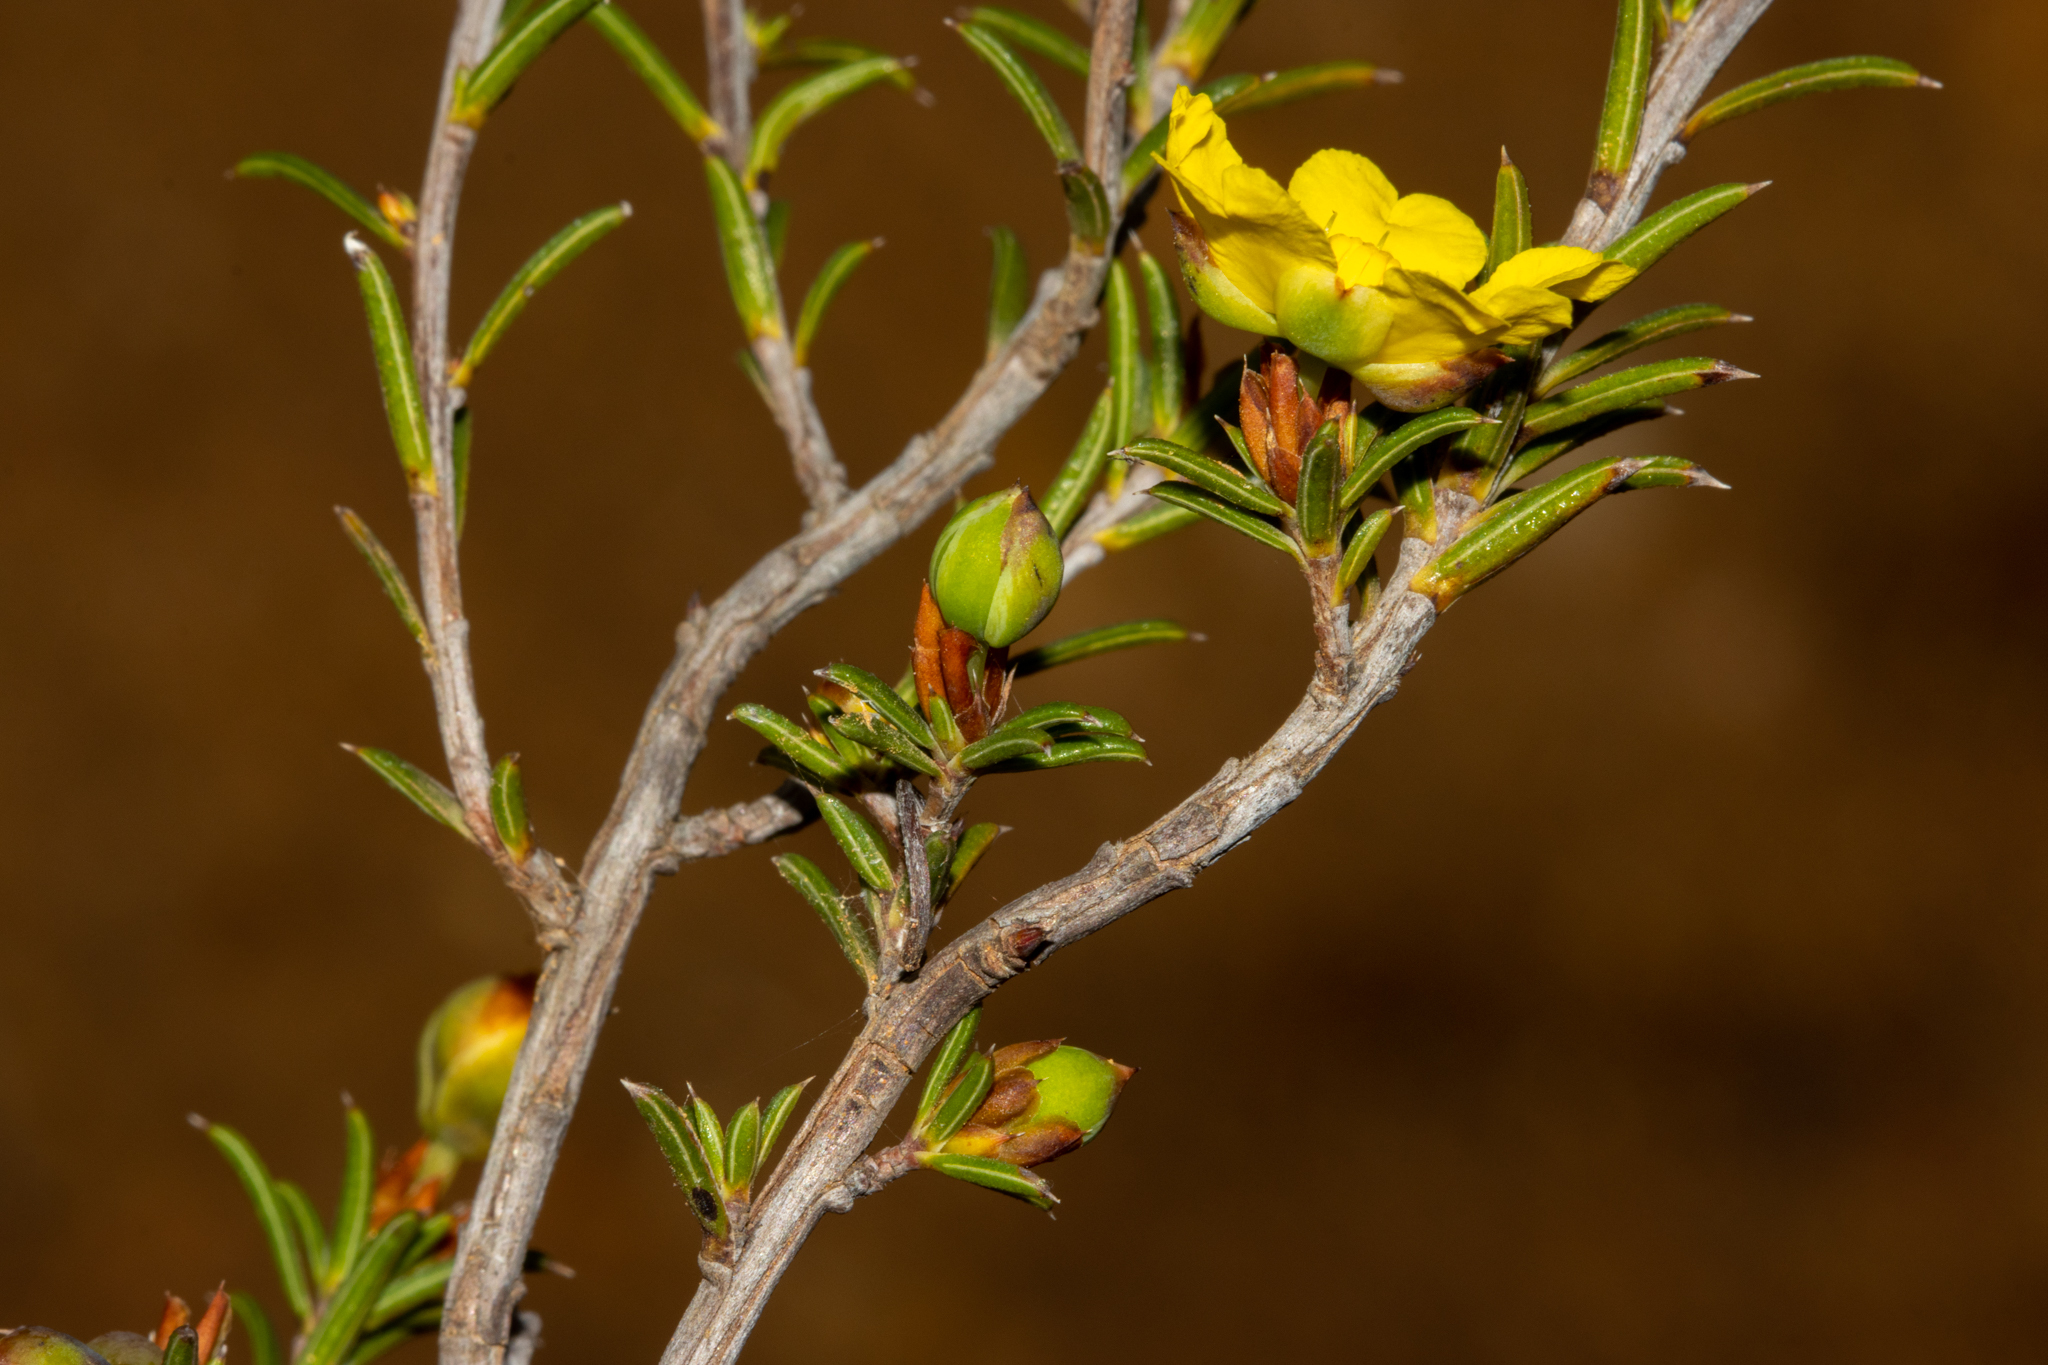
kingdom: Plantae
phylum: Tracheophyta
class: Magnoliopsida
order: Dilleniales
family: Dilleniaceae
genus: Hibbertia
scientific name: Hibbertia rostellata
